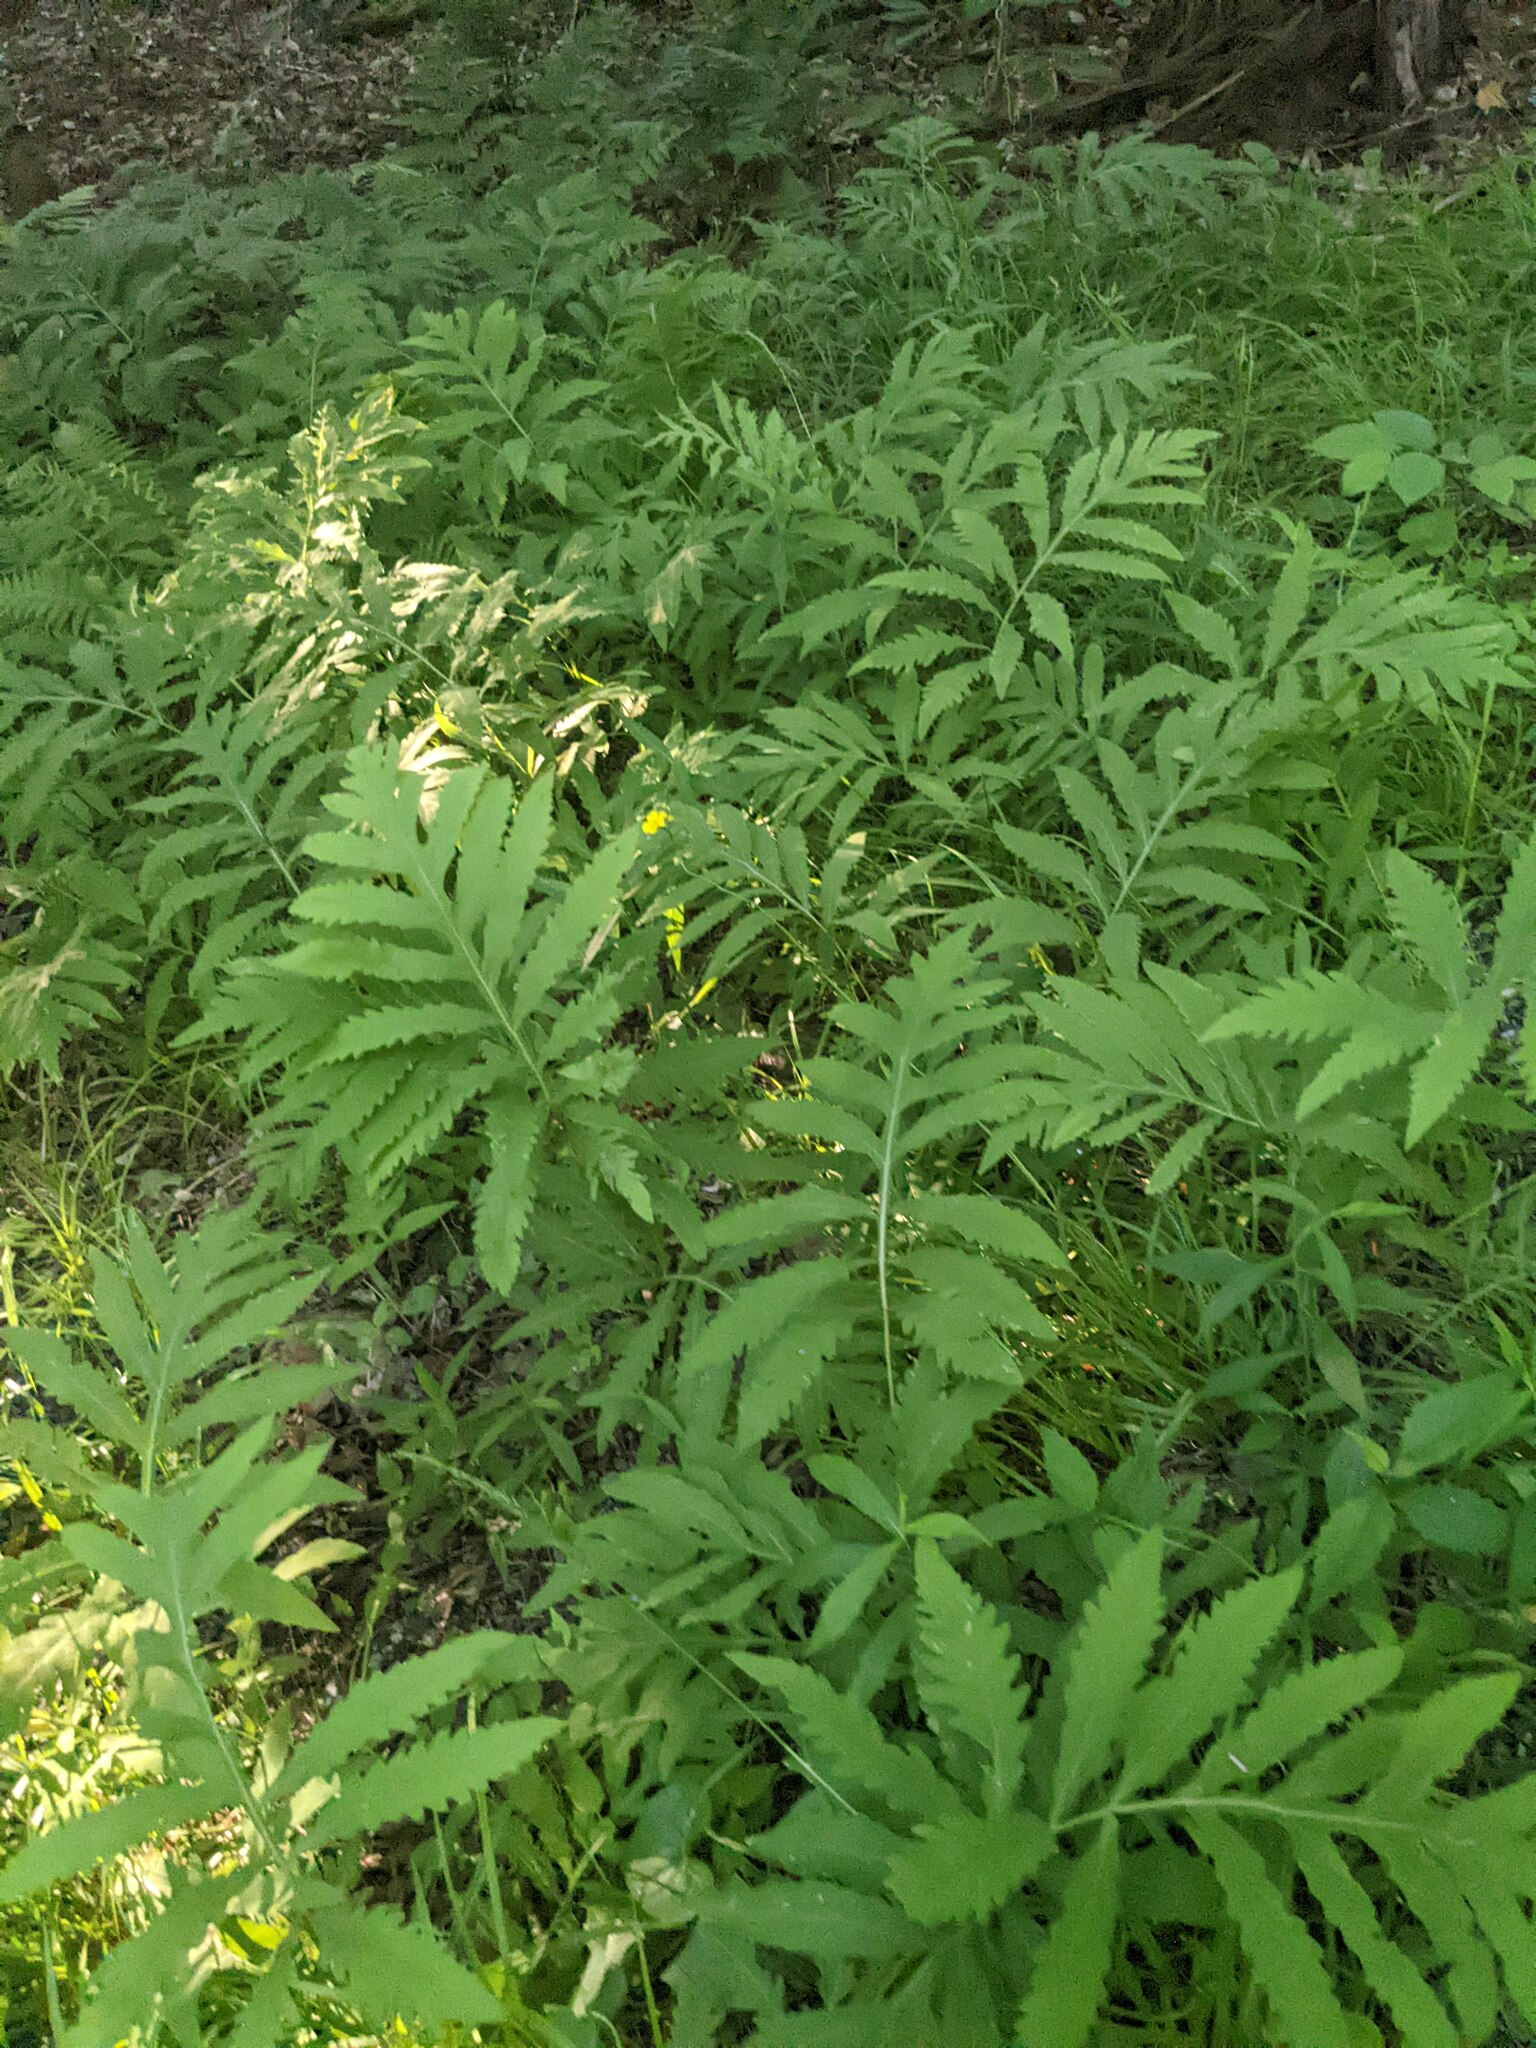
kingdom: Plantae
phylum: Tracheophyta
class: Polypodiopsida
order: Polypodiales
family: Onocleaceae
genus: Onoclea
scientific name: Onoclea sensibilis
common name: Sensitive fern
